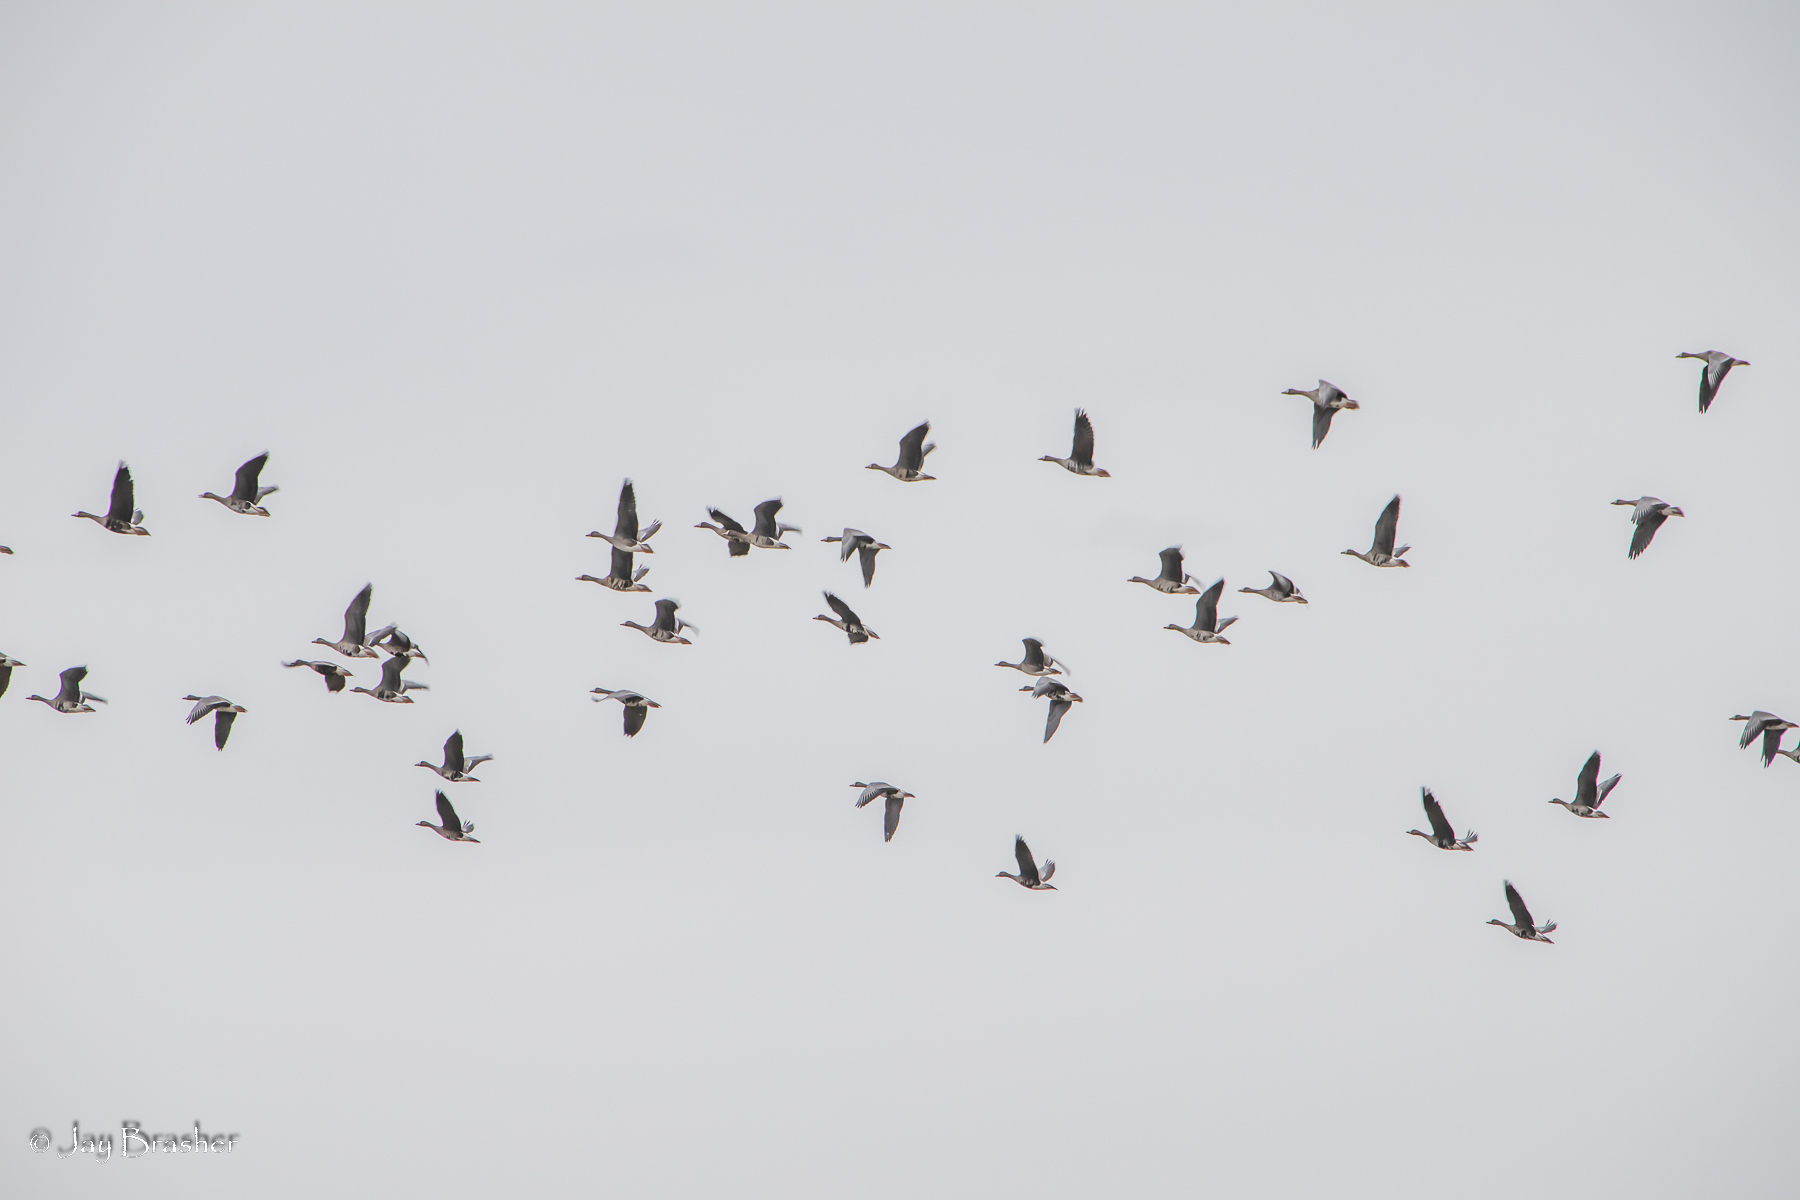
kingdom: Animalia
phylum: Chordata
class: Aves
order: Anseriformes
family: Anatidae
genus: Anser
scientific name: Anser albifrons
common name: Greater white-fronted goose
